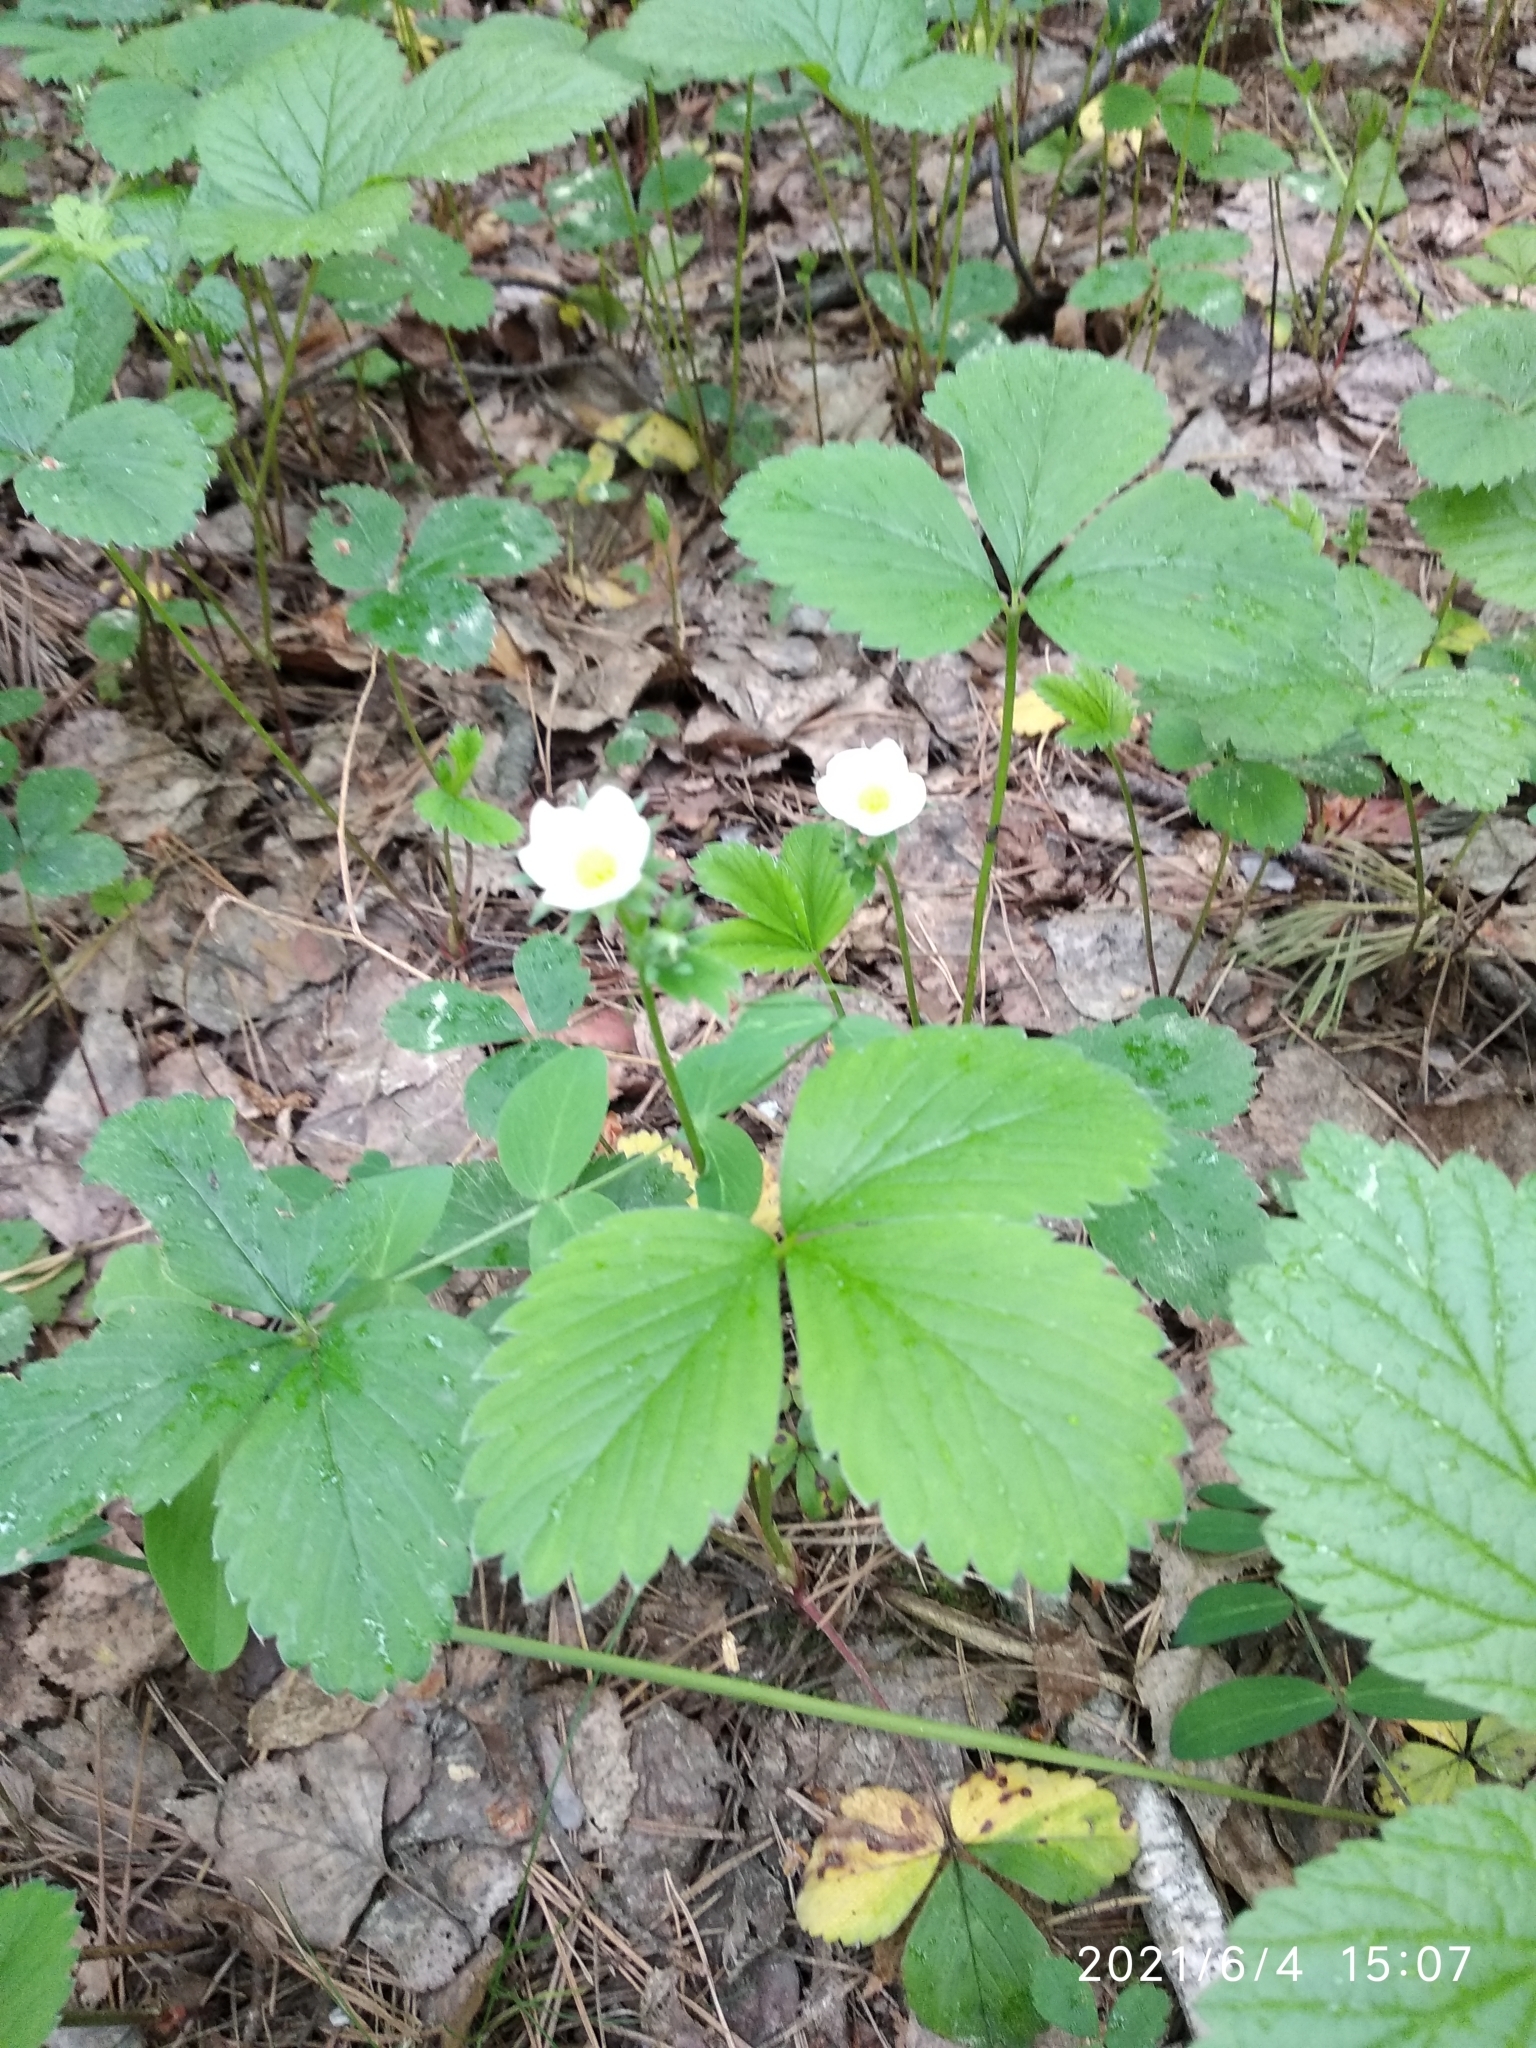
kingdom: Plantae
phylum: Tracheophyta
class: Magnoliopsida
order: Rosales
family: Rosaceae
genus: Fragaria
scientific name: Fragaria ananassa
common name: Garden strawberry
